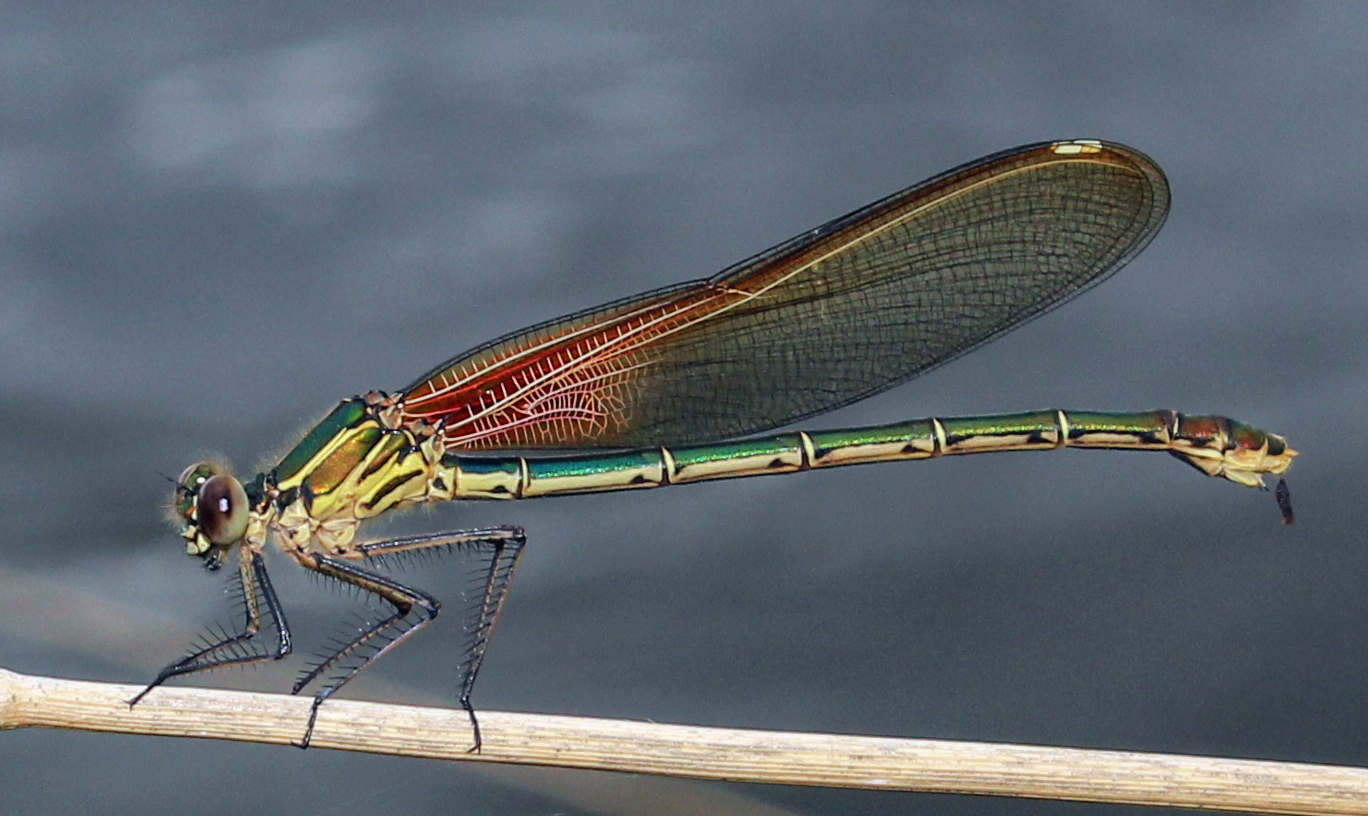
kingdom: Animalia
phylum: Arthropoda
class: Insecta
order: Odonata
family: Calopterygidae
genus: Hetaerina
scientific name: Hetaerina americana
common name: American rubyspot
